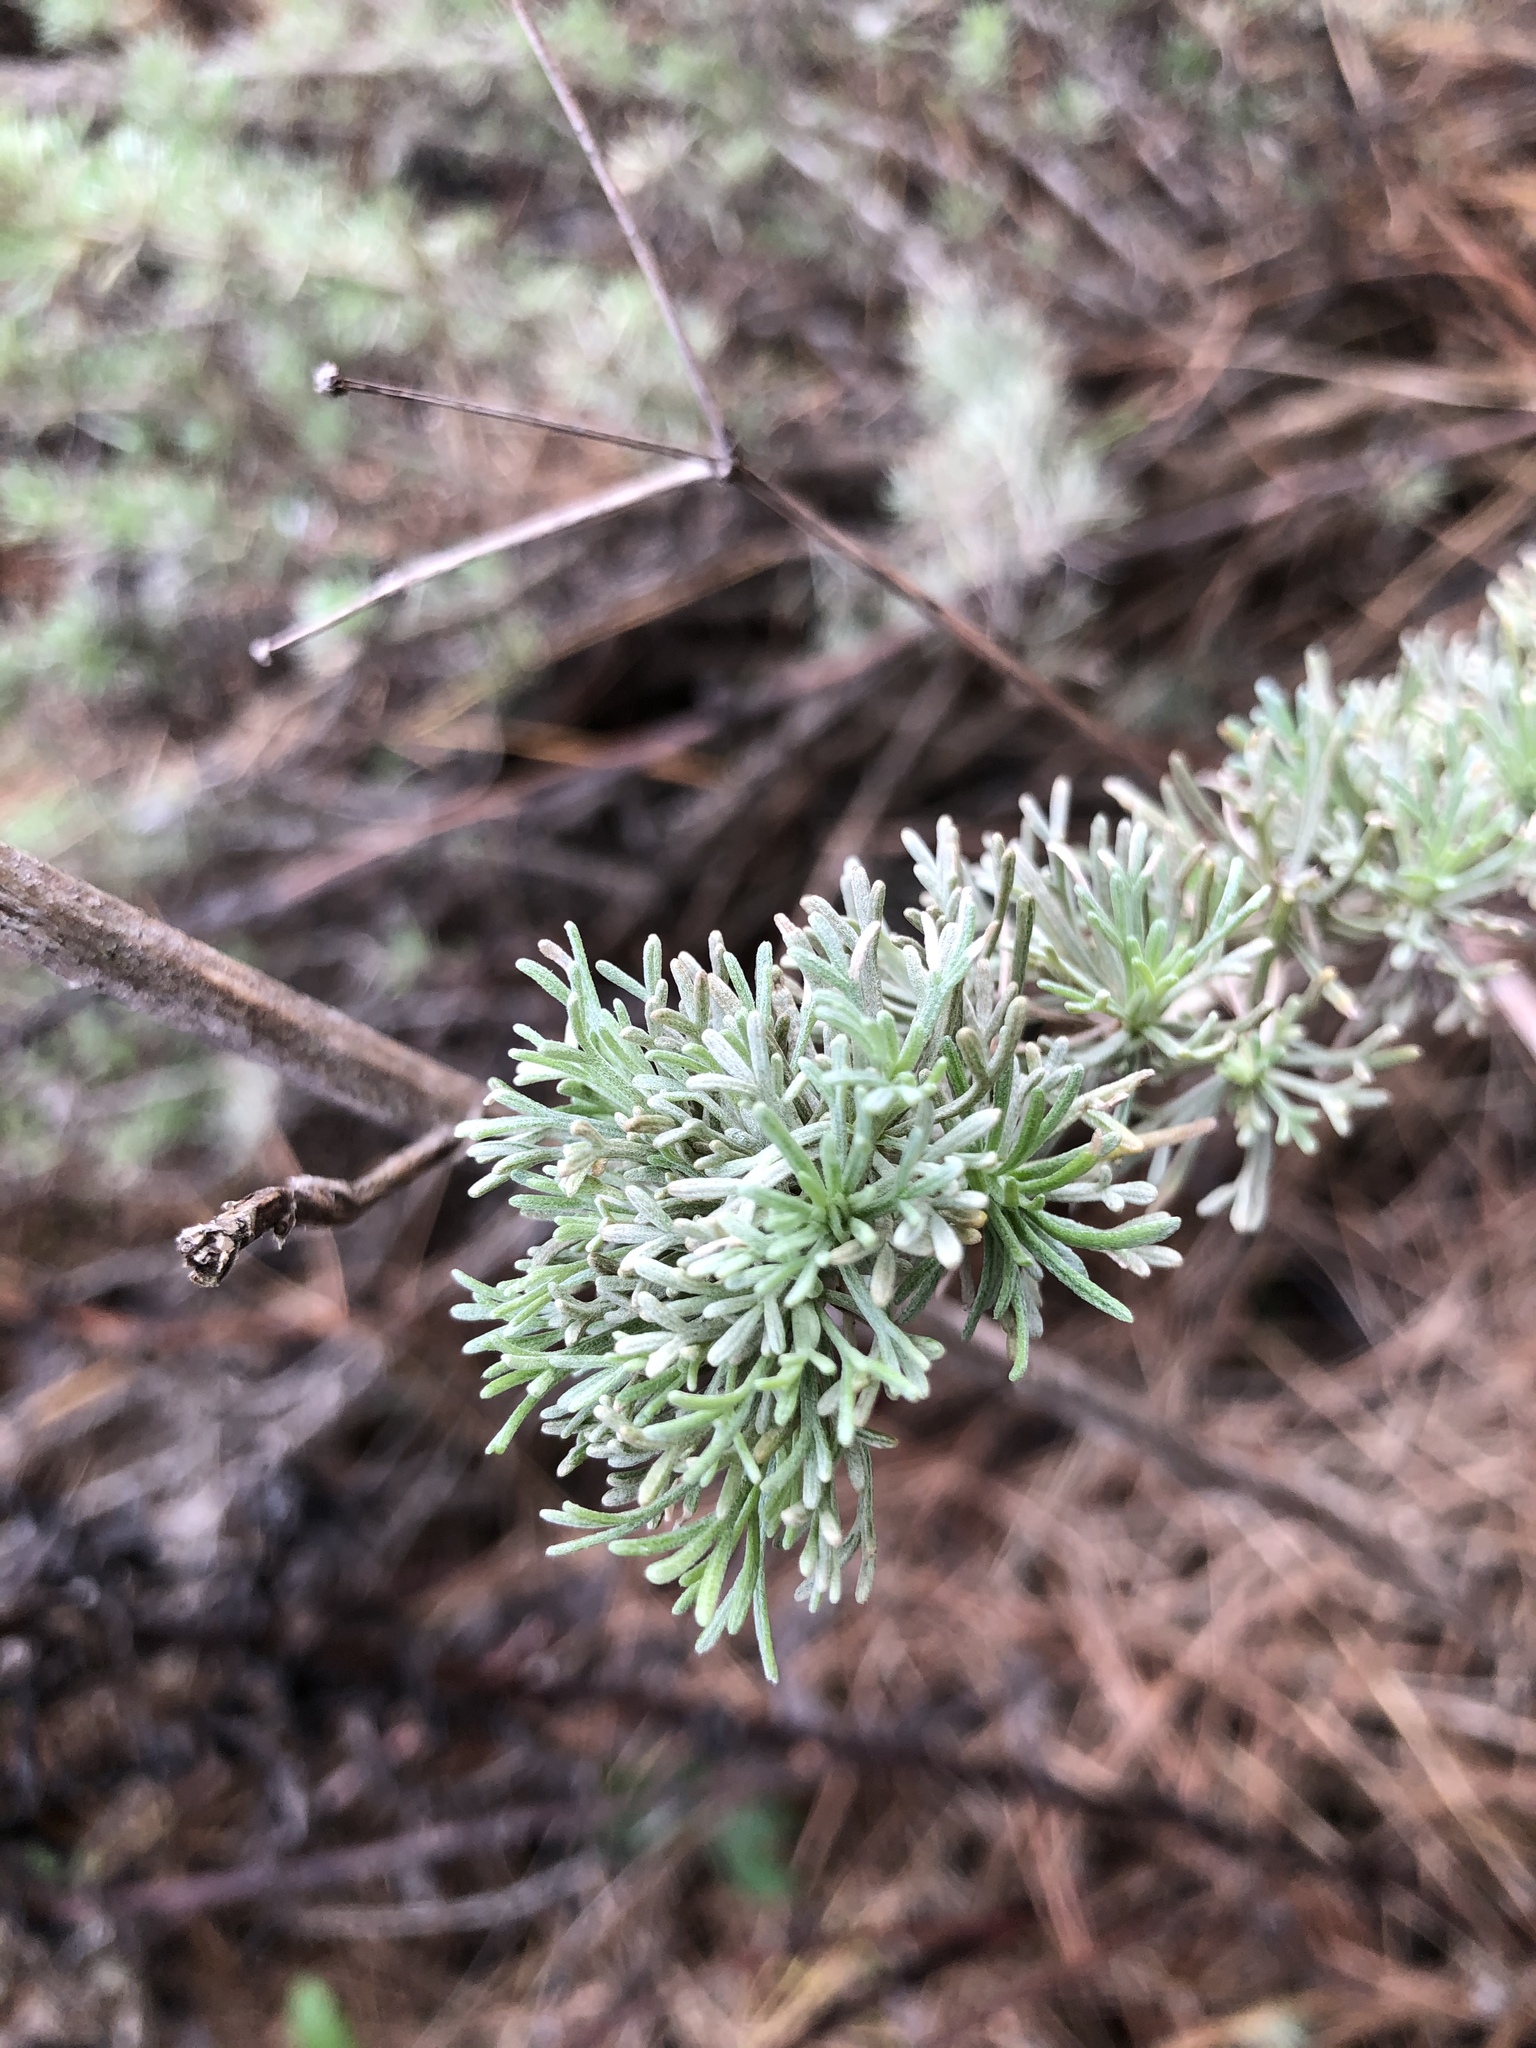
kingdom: Plantae
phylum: Tracheophyta
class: Magnoliopsida
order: Asterales
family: Asteraceae
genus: Artemisia
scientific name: Artemisia californica
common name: California sagebrush
